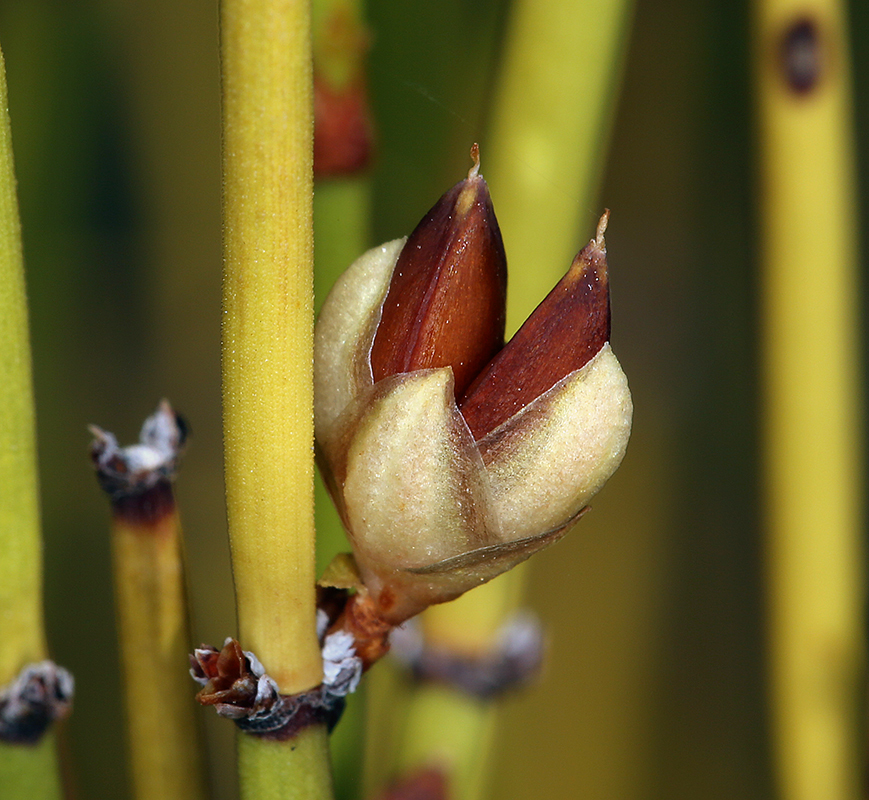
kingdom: Plantae
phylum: Tracheophyta
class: Gnetopsida
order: Ephedrales
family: Ephedraceae
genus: Ephedra
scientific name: Ephedra viridis
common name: Green ephedra
